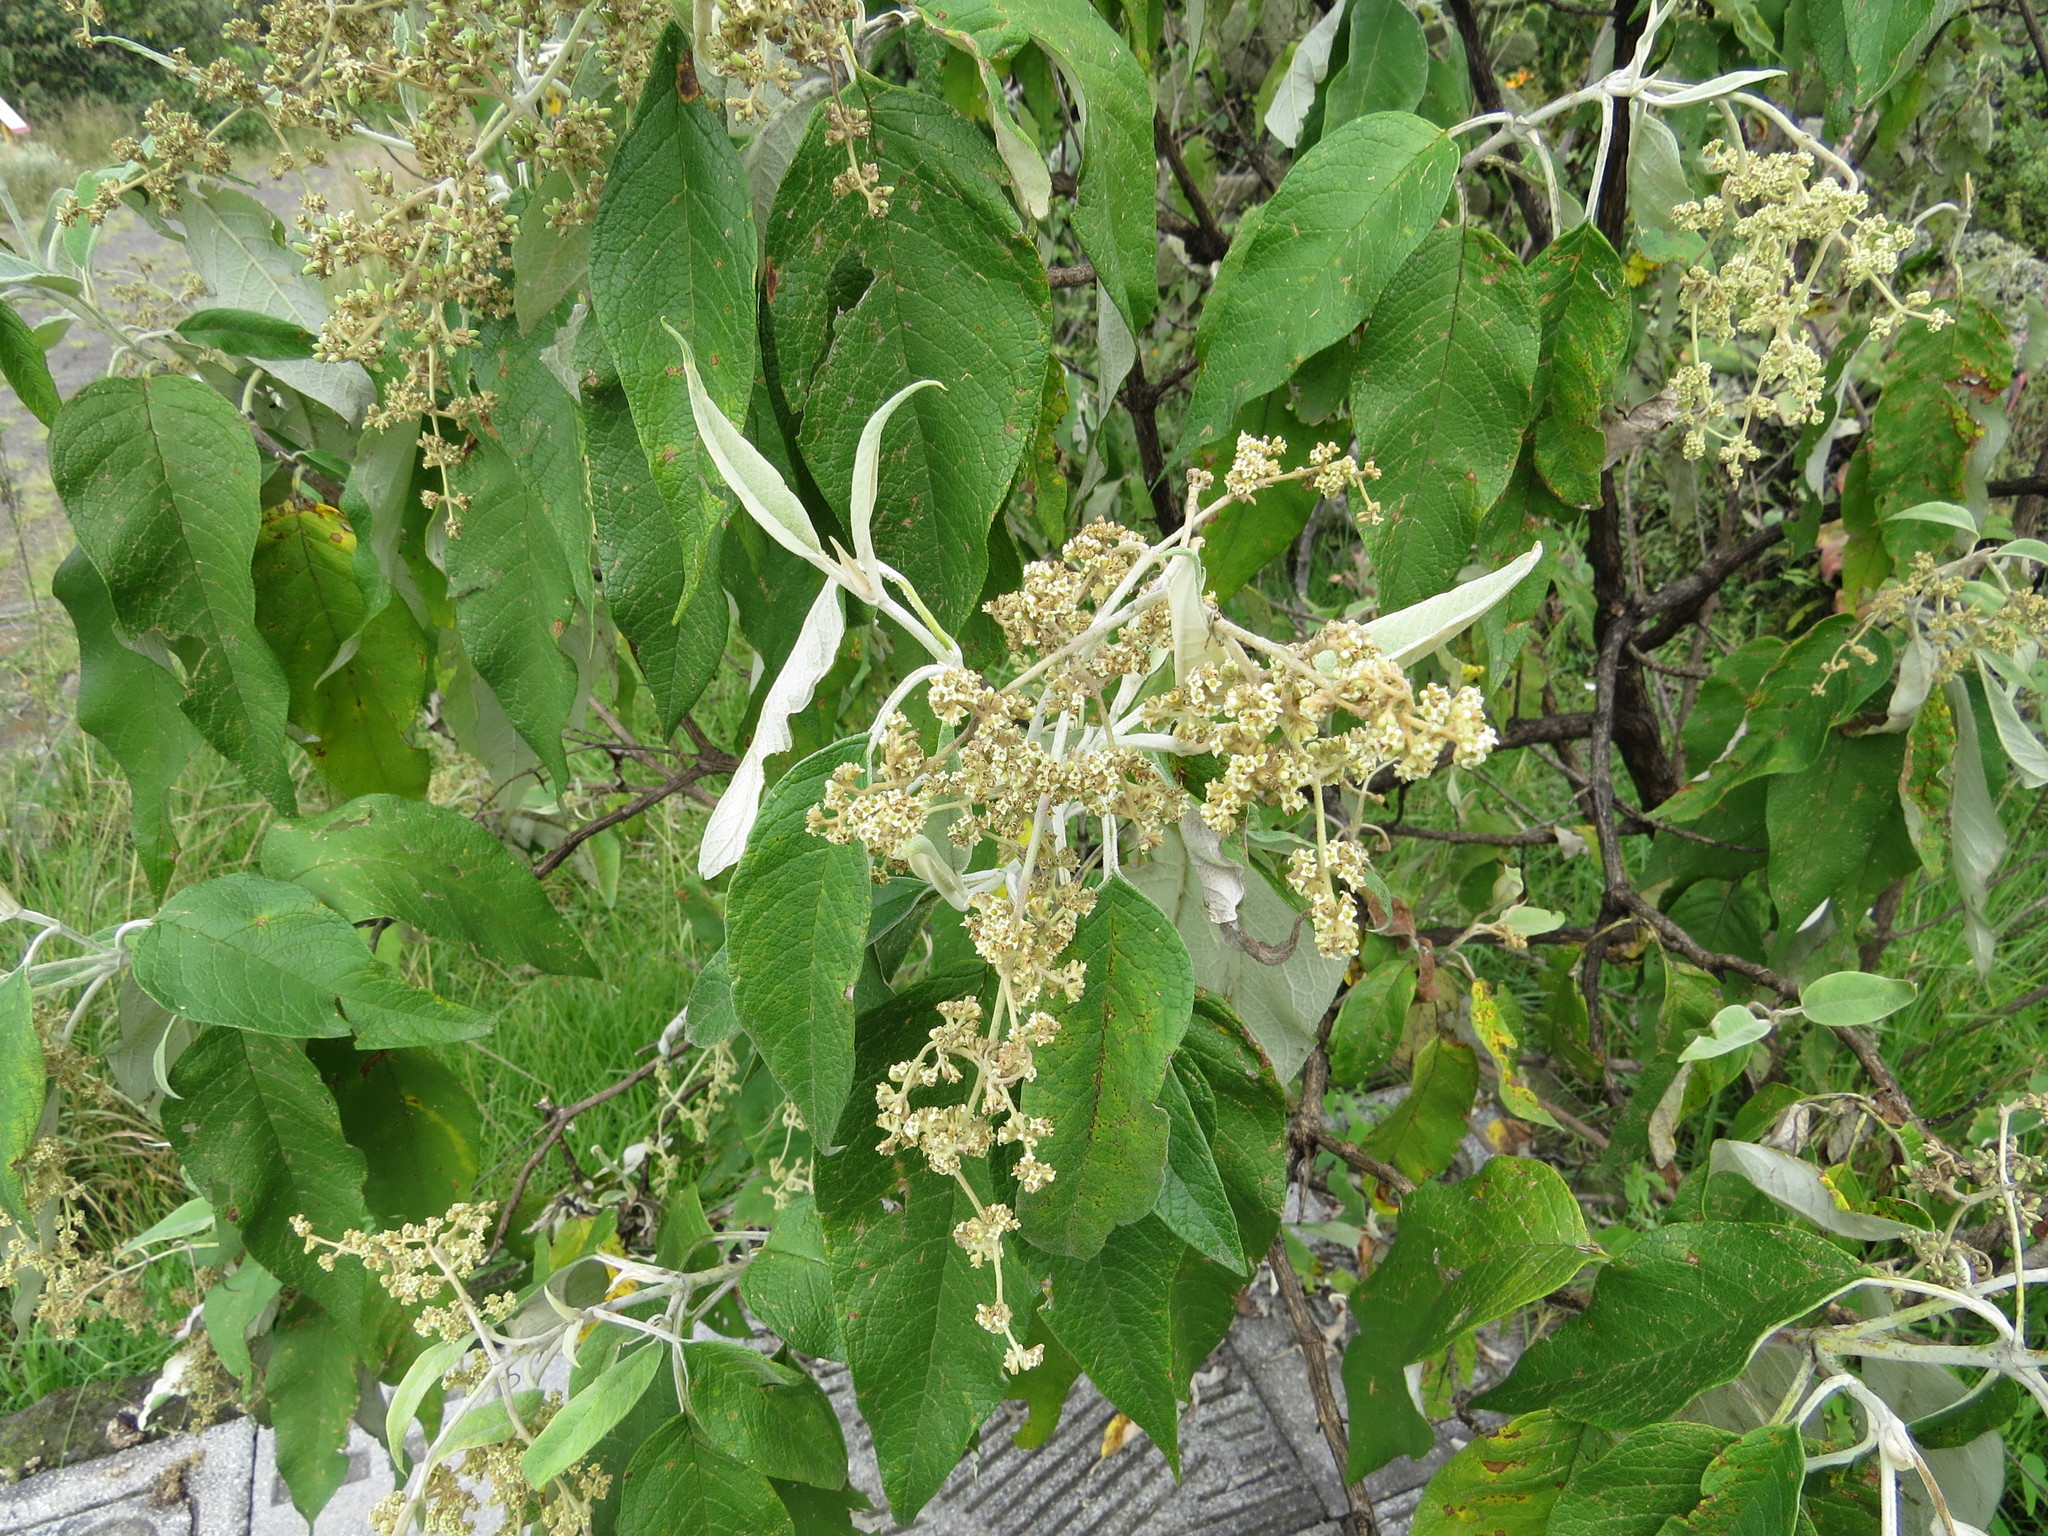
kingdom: Plantae
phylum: Tracheophyta
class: Magnoliopsida
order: Lamiales
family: Scrophulariaceae
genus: Buddleja
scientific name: Buddleja cordata
